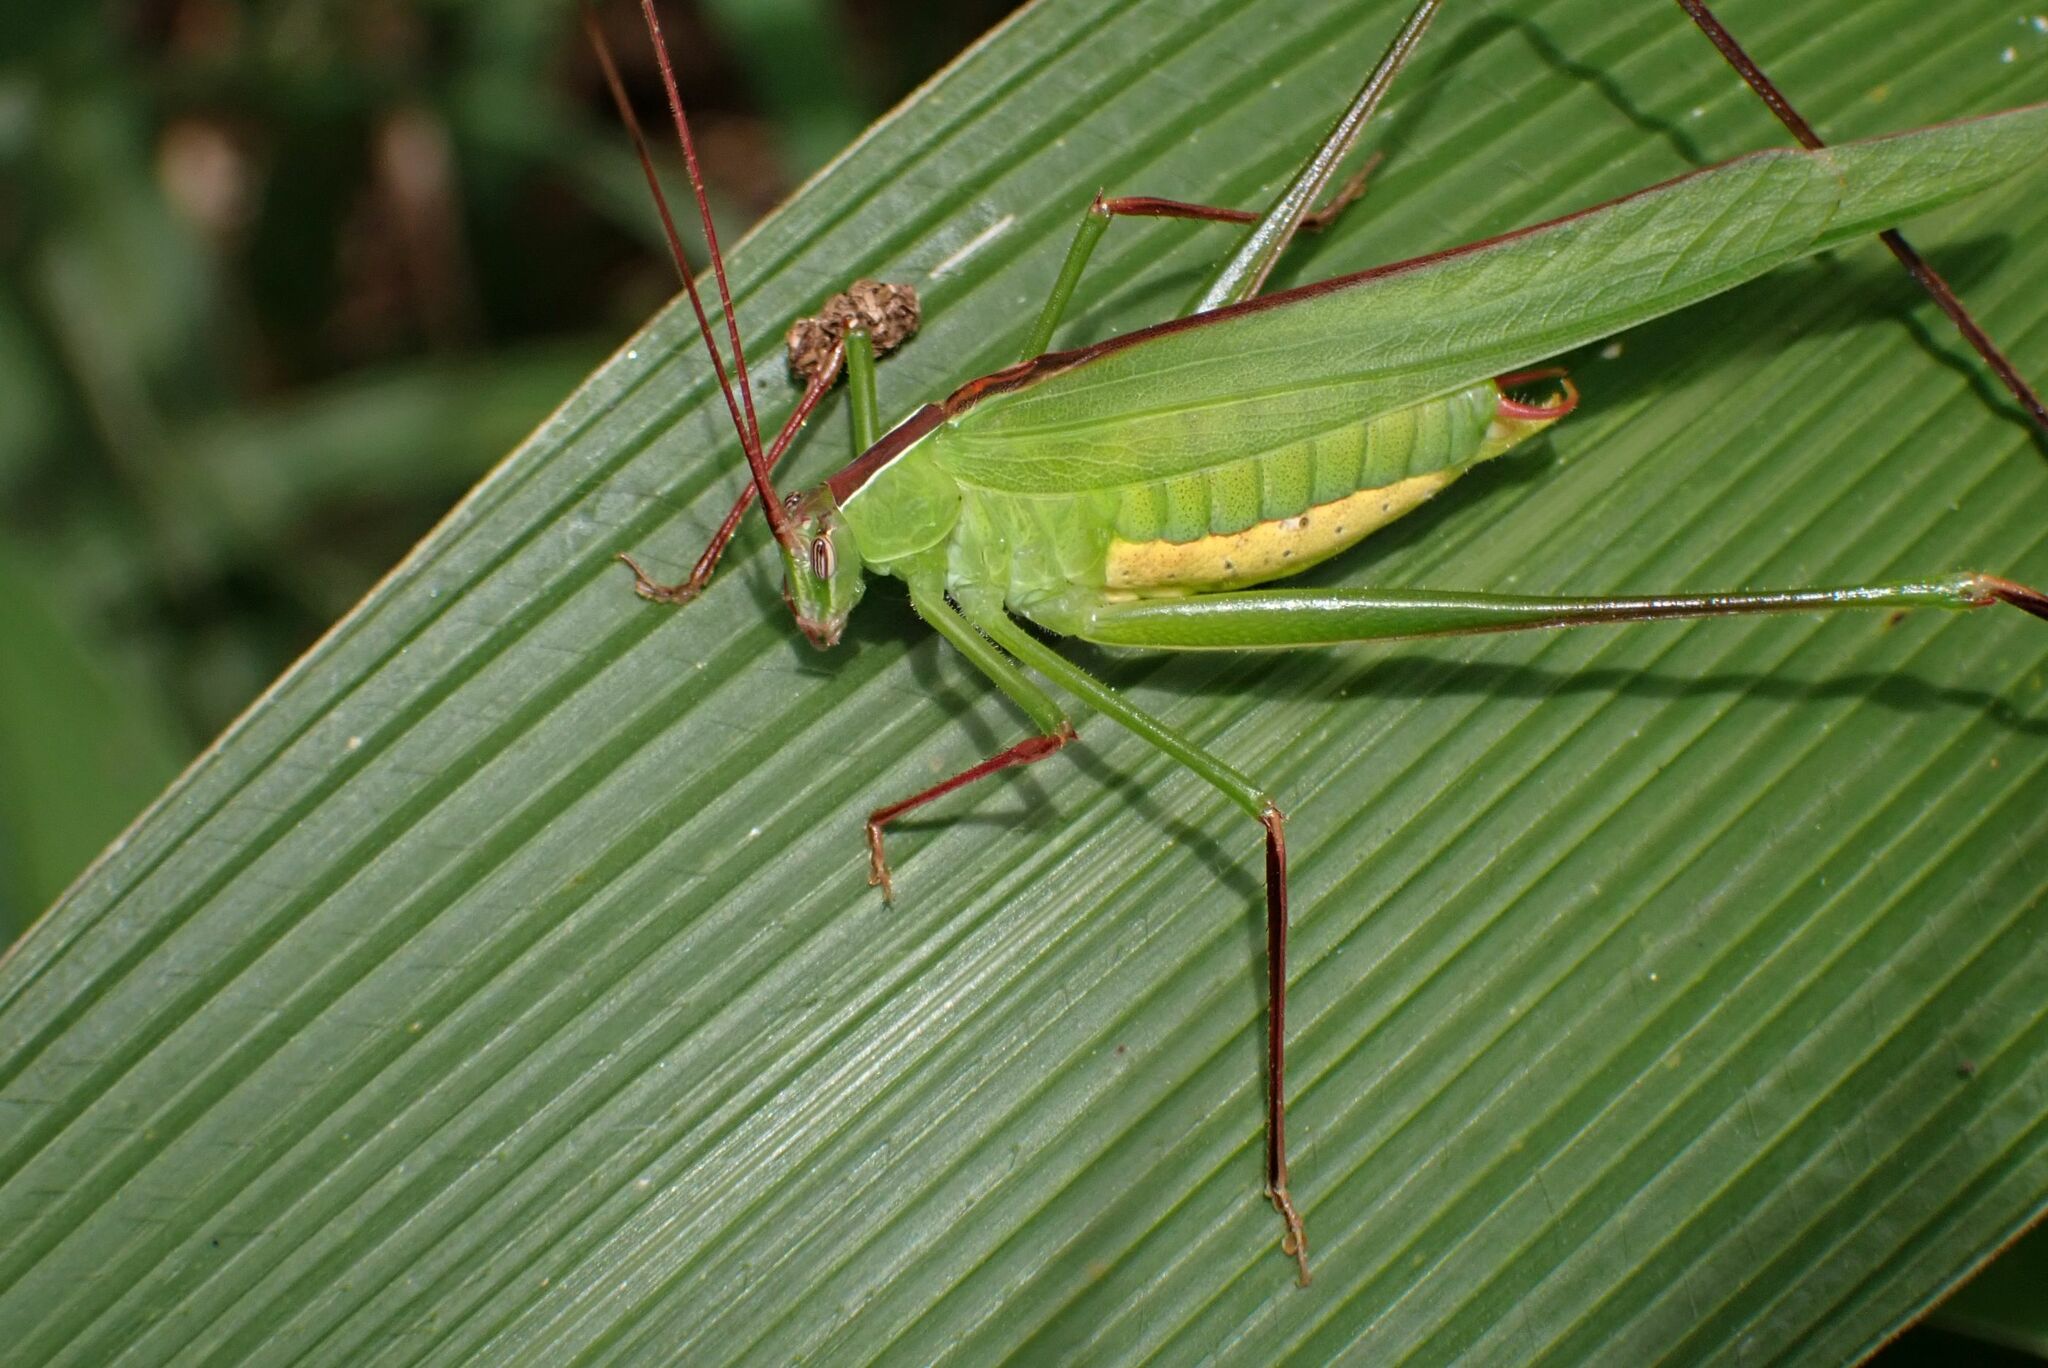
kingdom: Animalia
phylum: Arthropoda
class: Insecta
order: Orthoptera
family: Tettigoniidae
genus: Tylopsis
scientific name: Tylopsis continua
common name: Common grass katydid
